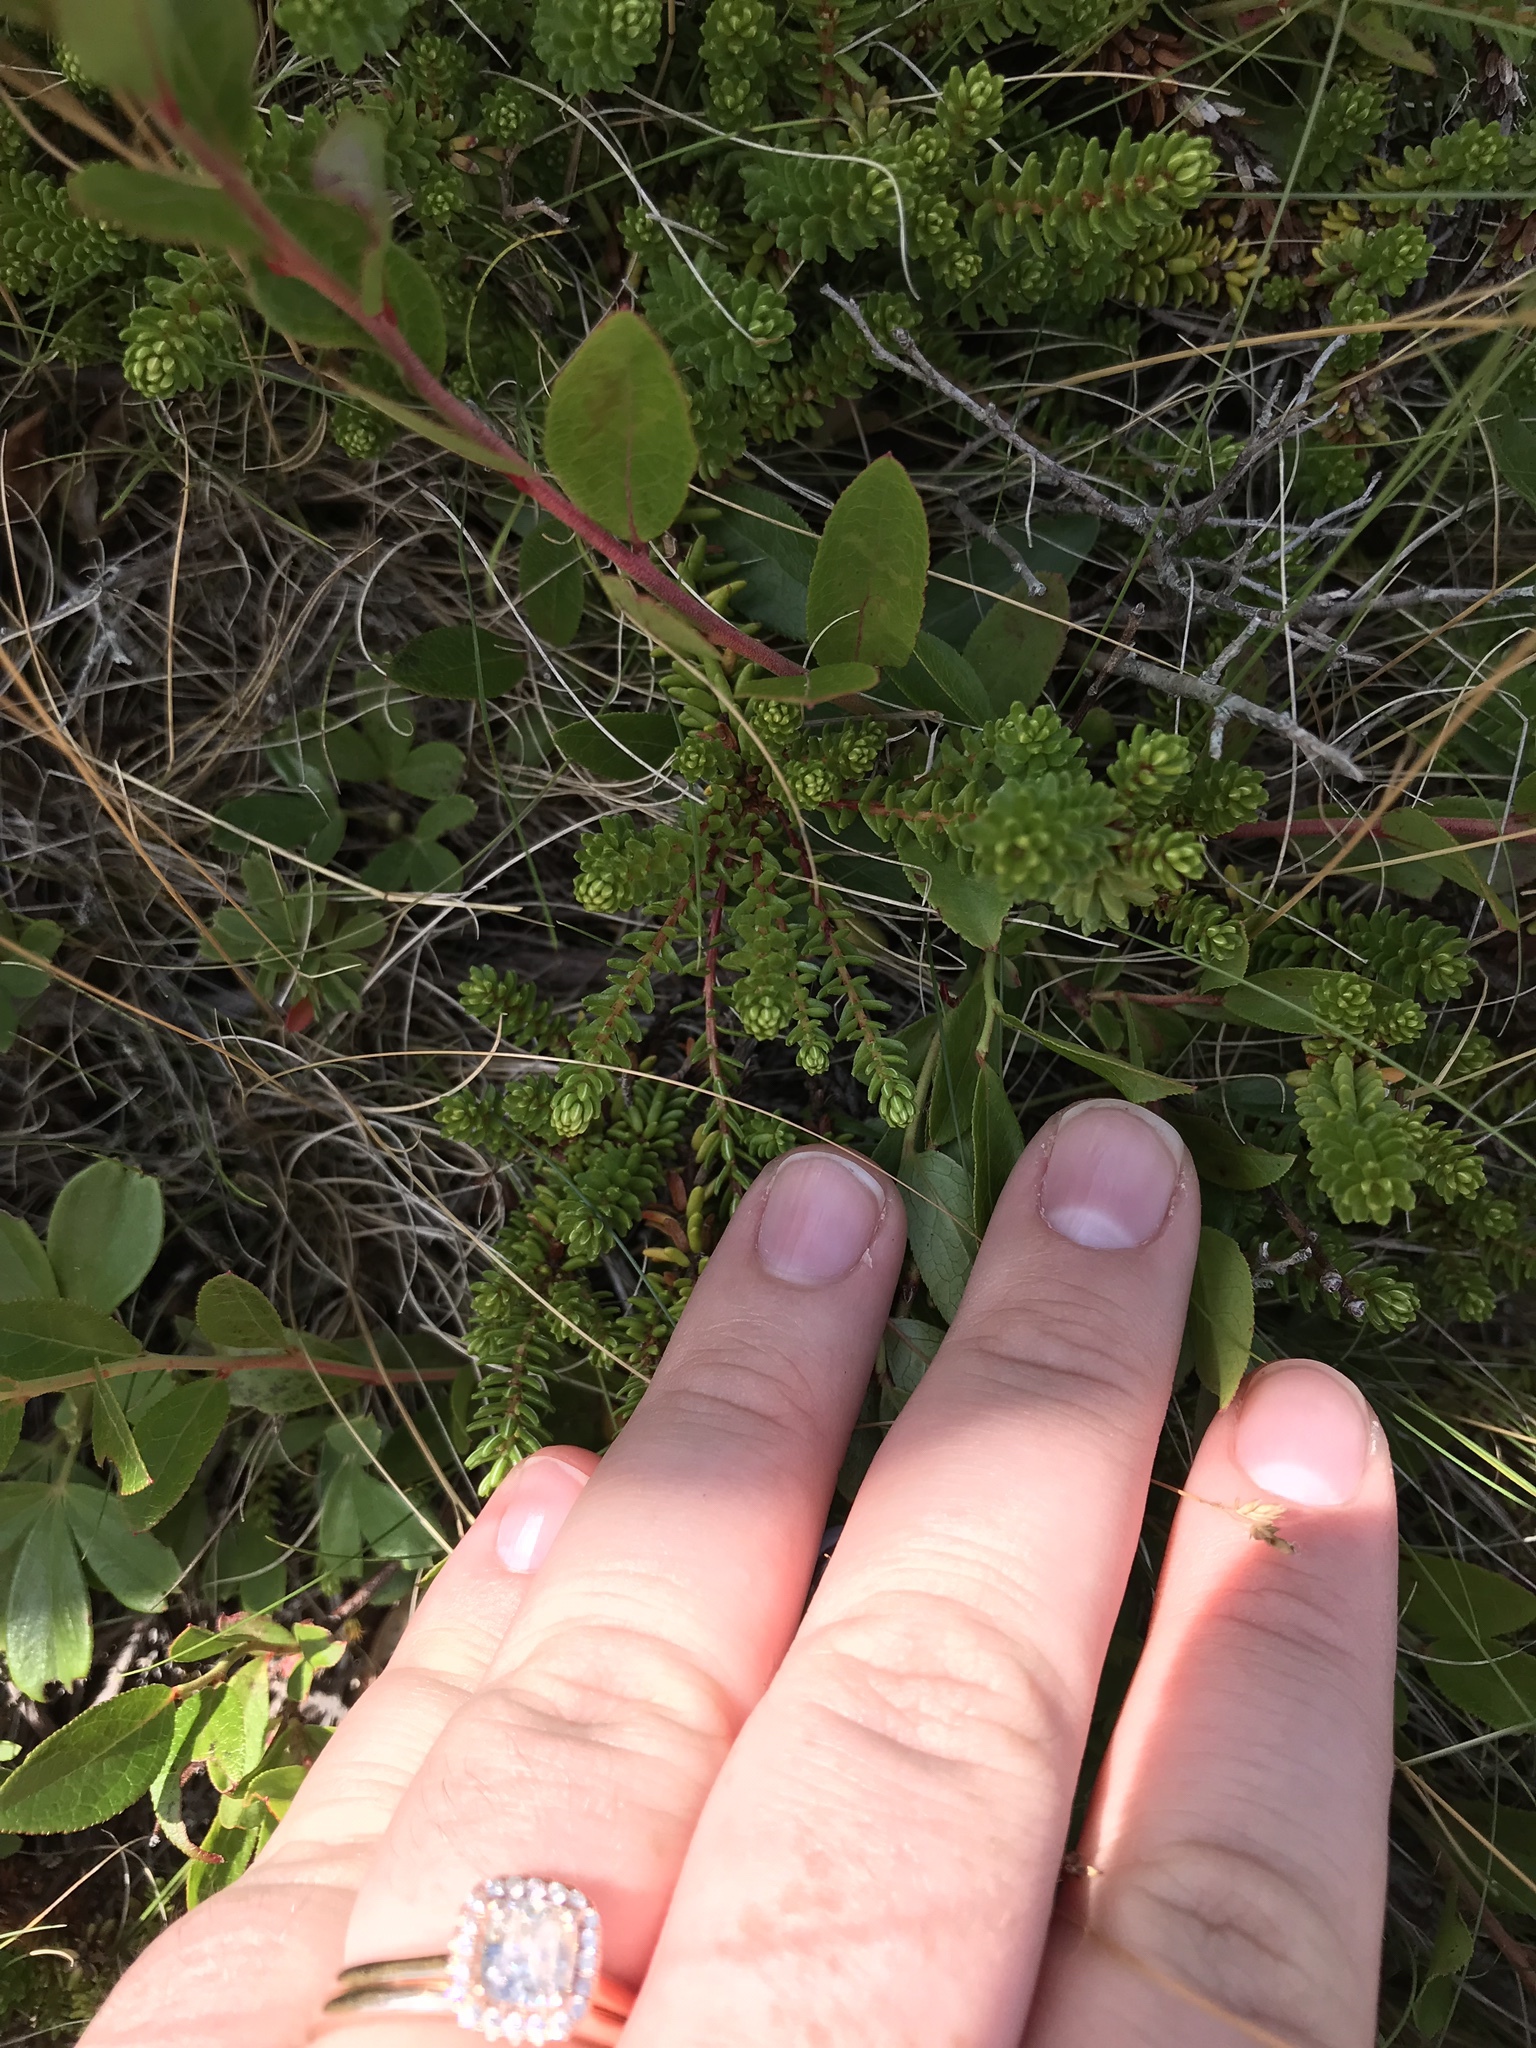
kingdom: Plantae
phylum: Tracheophyta
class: Magnoliopsida
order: Ericales
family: Ericaceae
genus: Empetrum
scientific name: Empetrum nigrum
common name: Black crowberry
